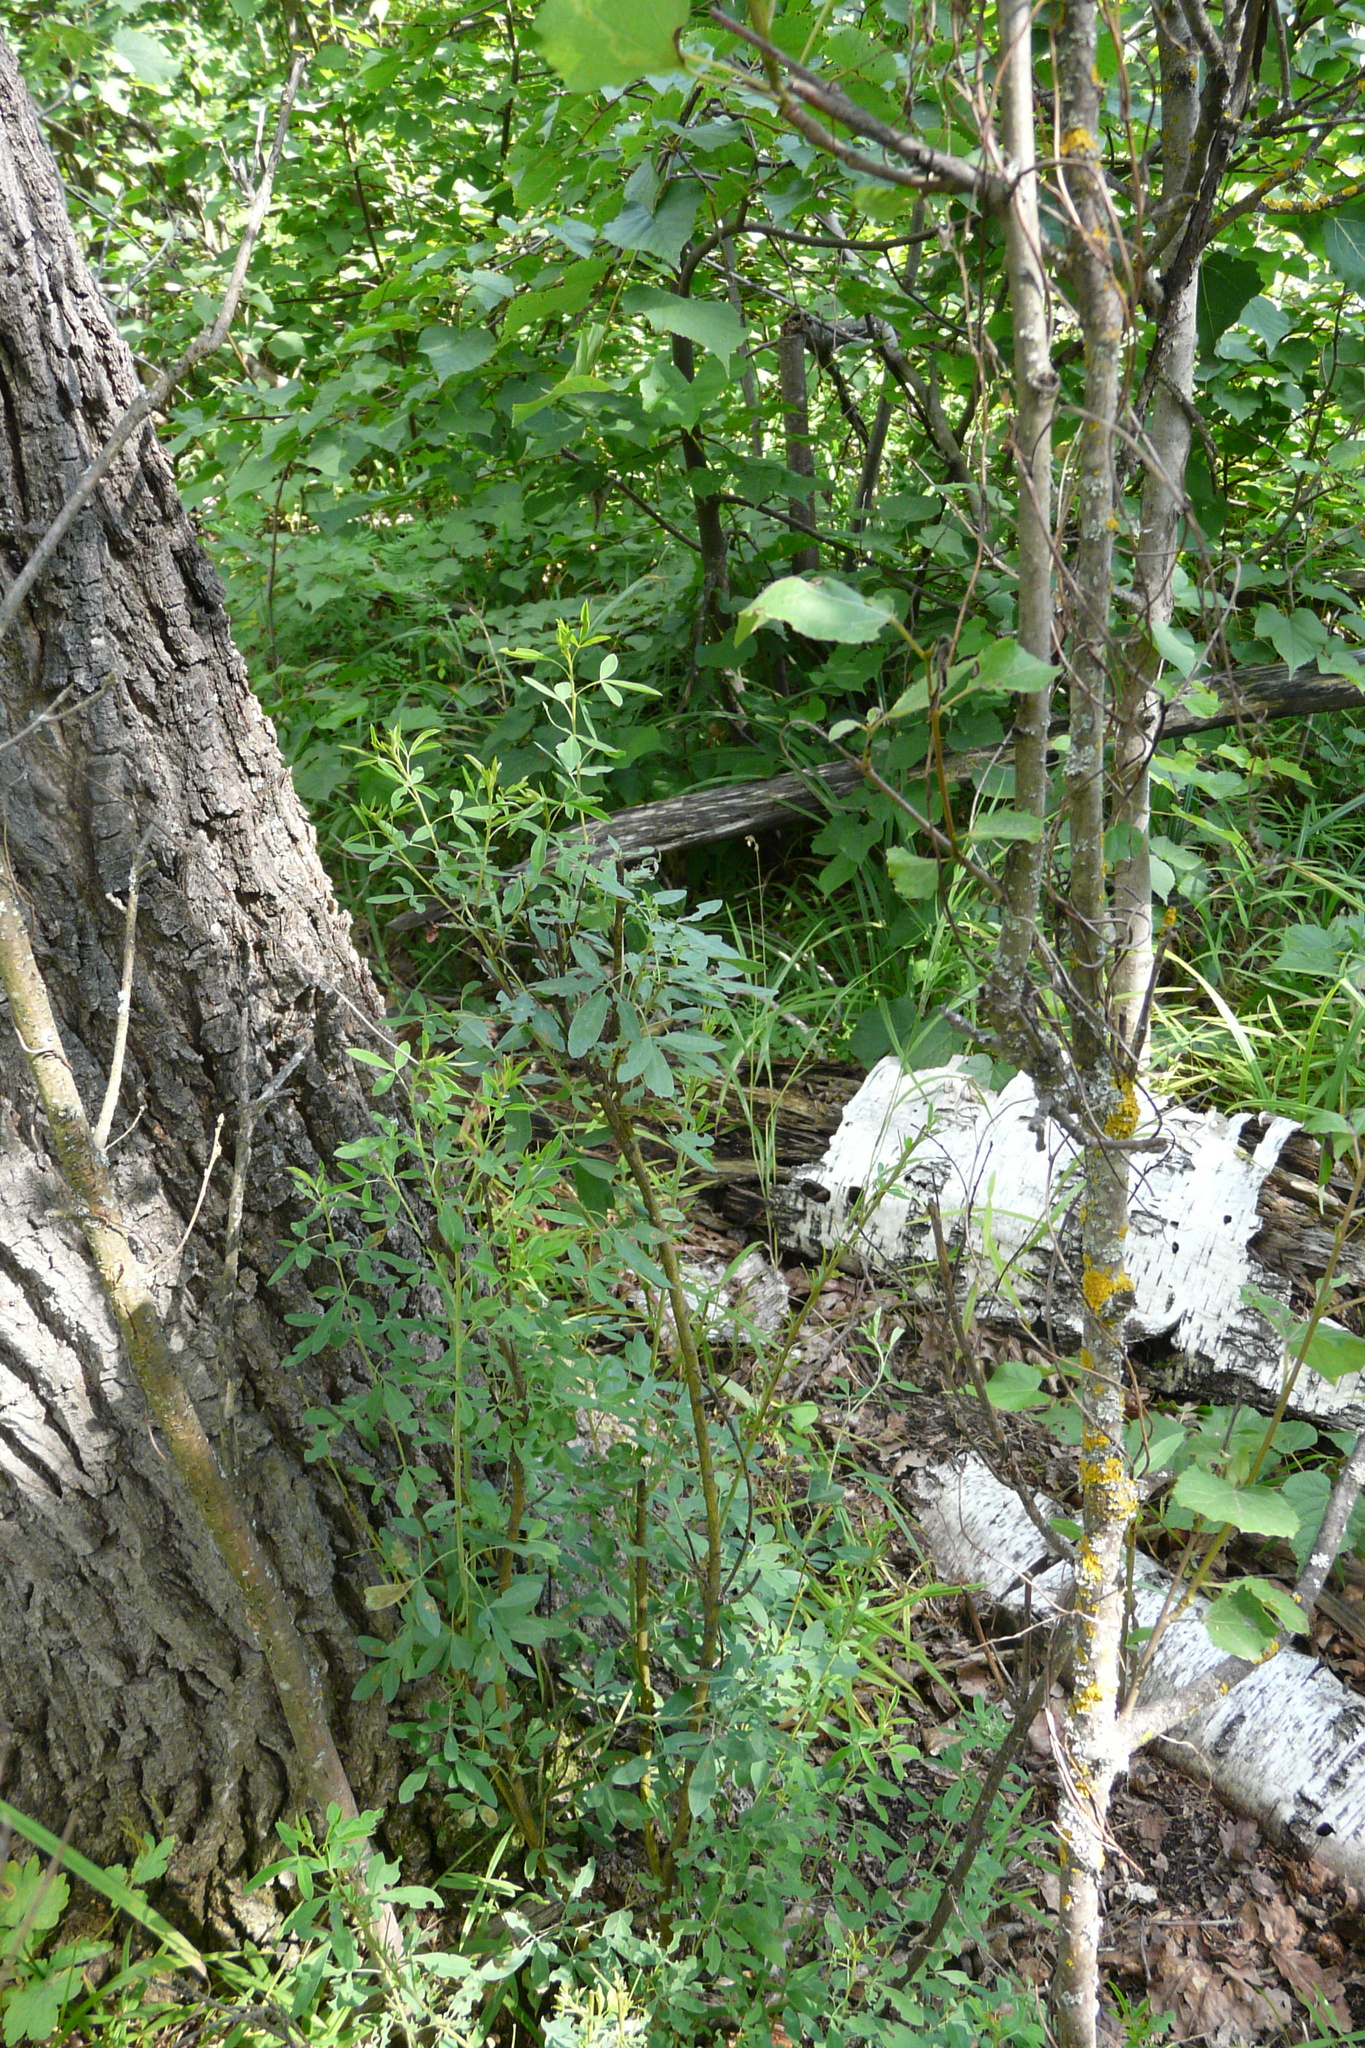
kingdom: Plantae
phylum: Tracheophyta
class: Magnoliopsida
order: Fabales
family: Fabaceae
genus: Chamaecytisus
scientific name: Chamaecytisus ruthenicus
